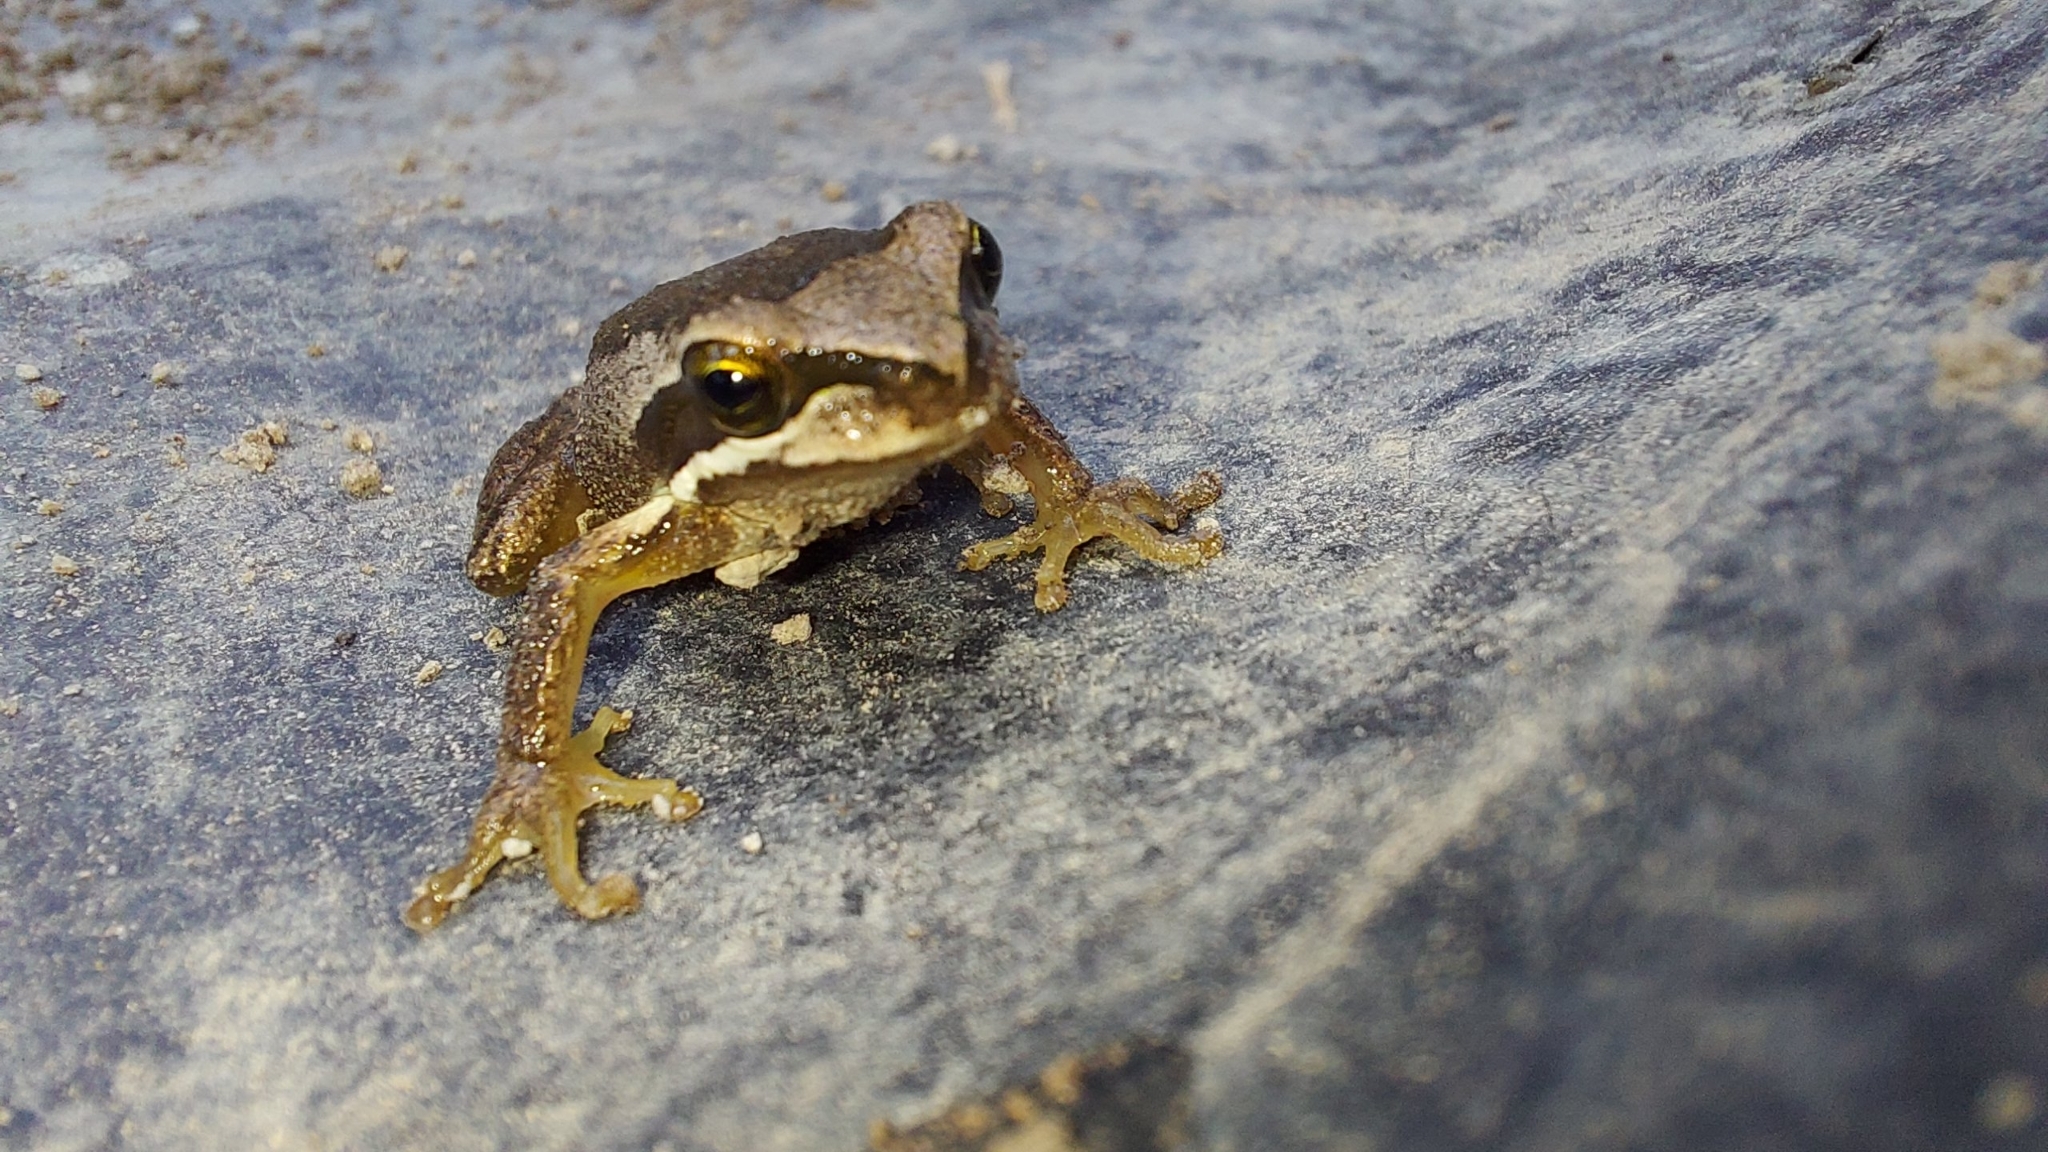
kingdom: Animalia
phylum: Chordata
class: Amphibia
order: Anura
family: Pelodryadidae
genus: Litoria
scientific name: Litoria ewingii
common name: Southern brown tree frog
